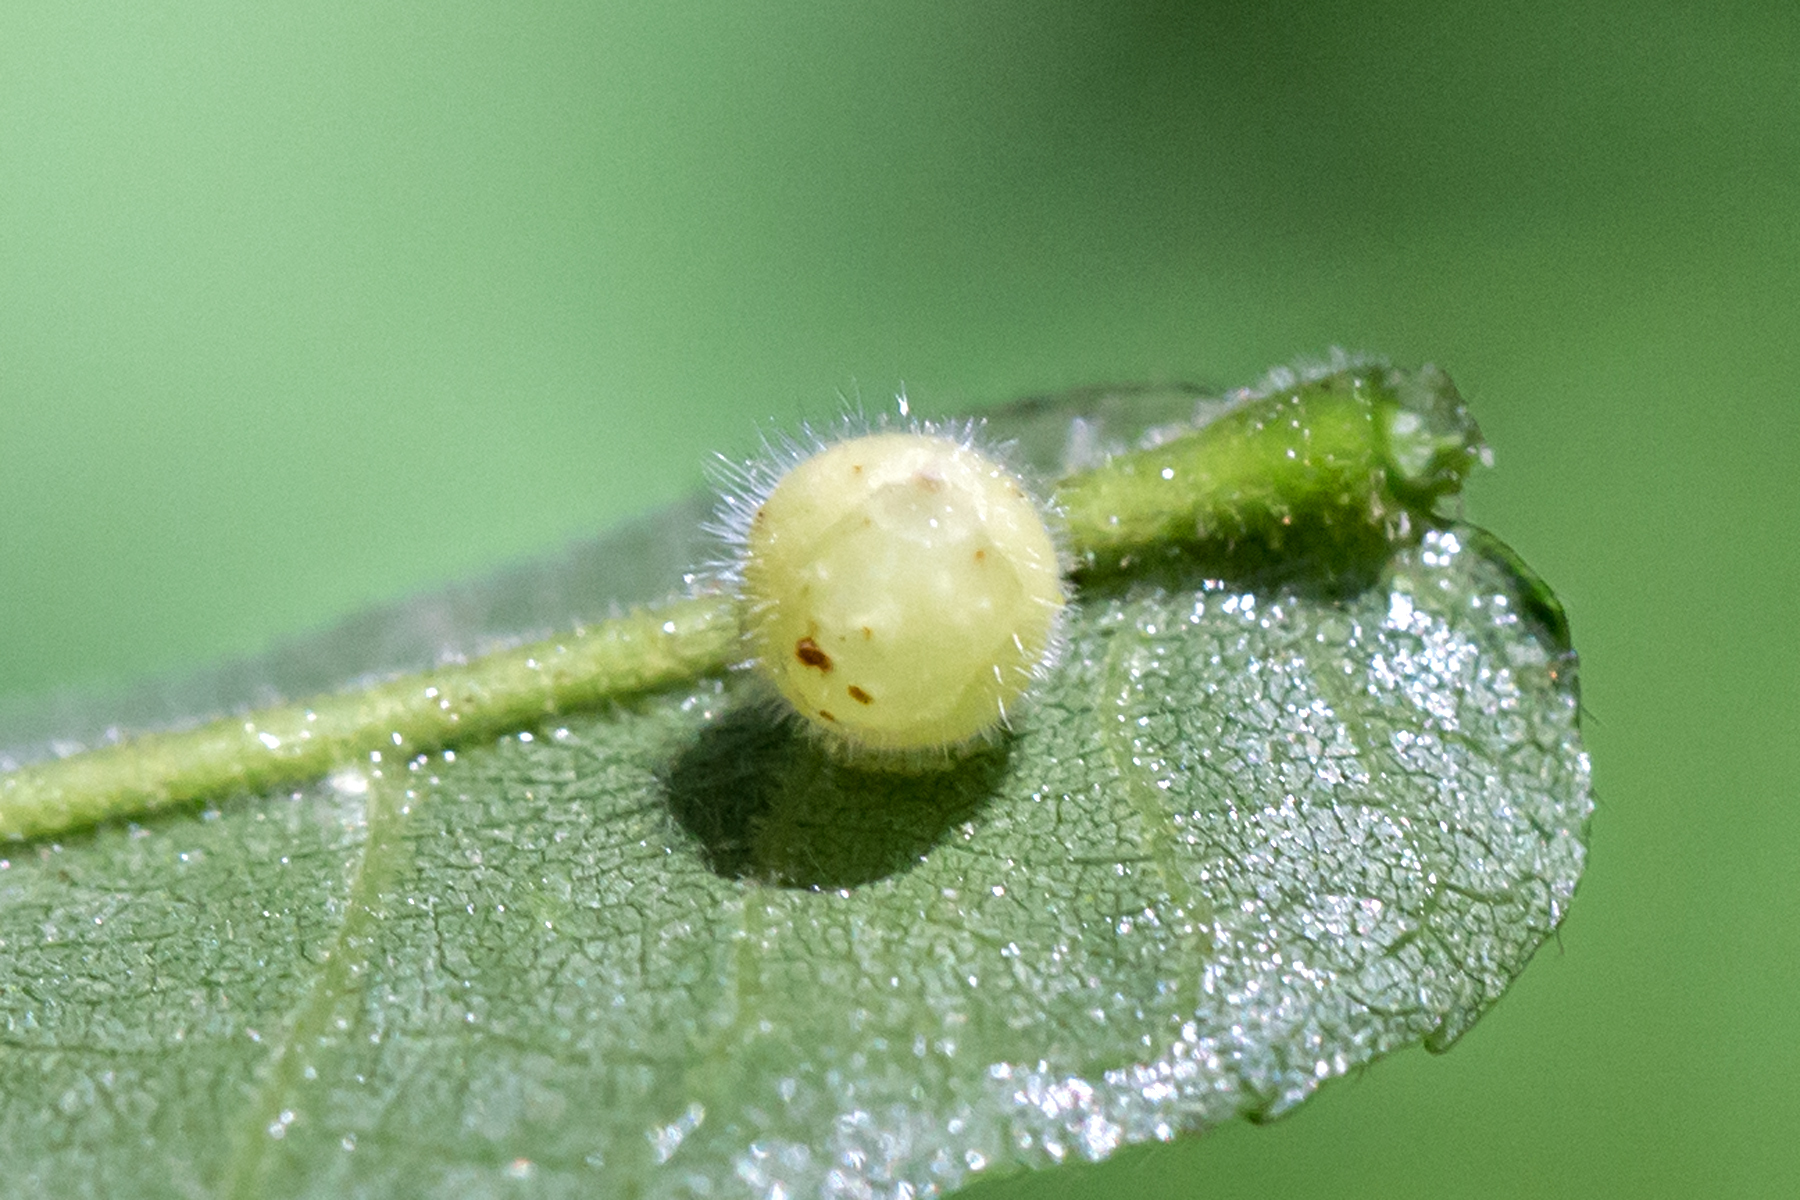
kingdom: Animalia
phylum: Arthropoda
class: Insecta
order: Diptera
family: Cecidomyiidae
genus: Caryomyia
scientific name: Caryomyia spiniglobus
